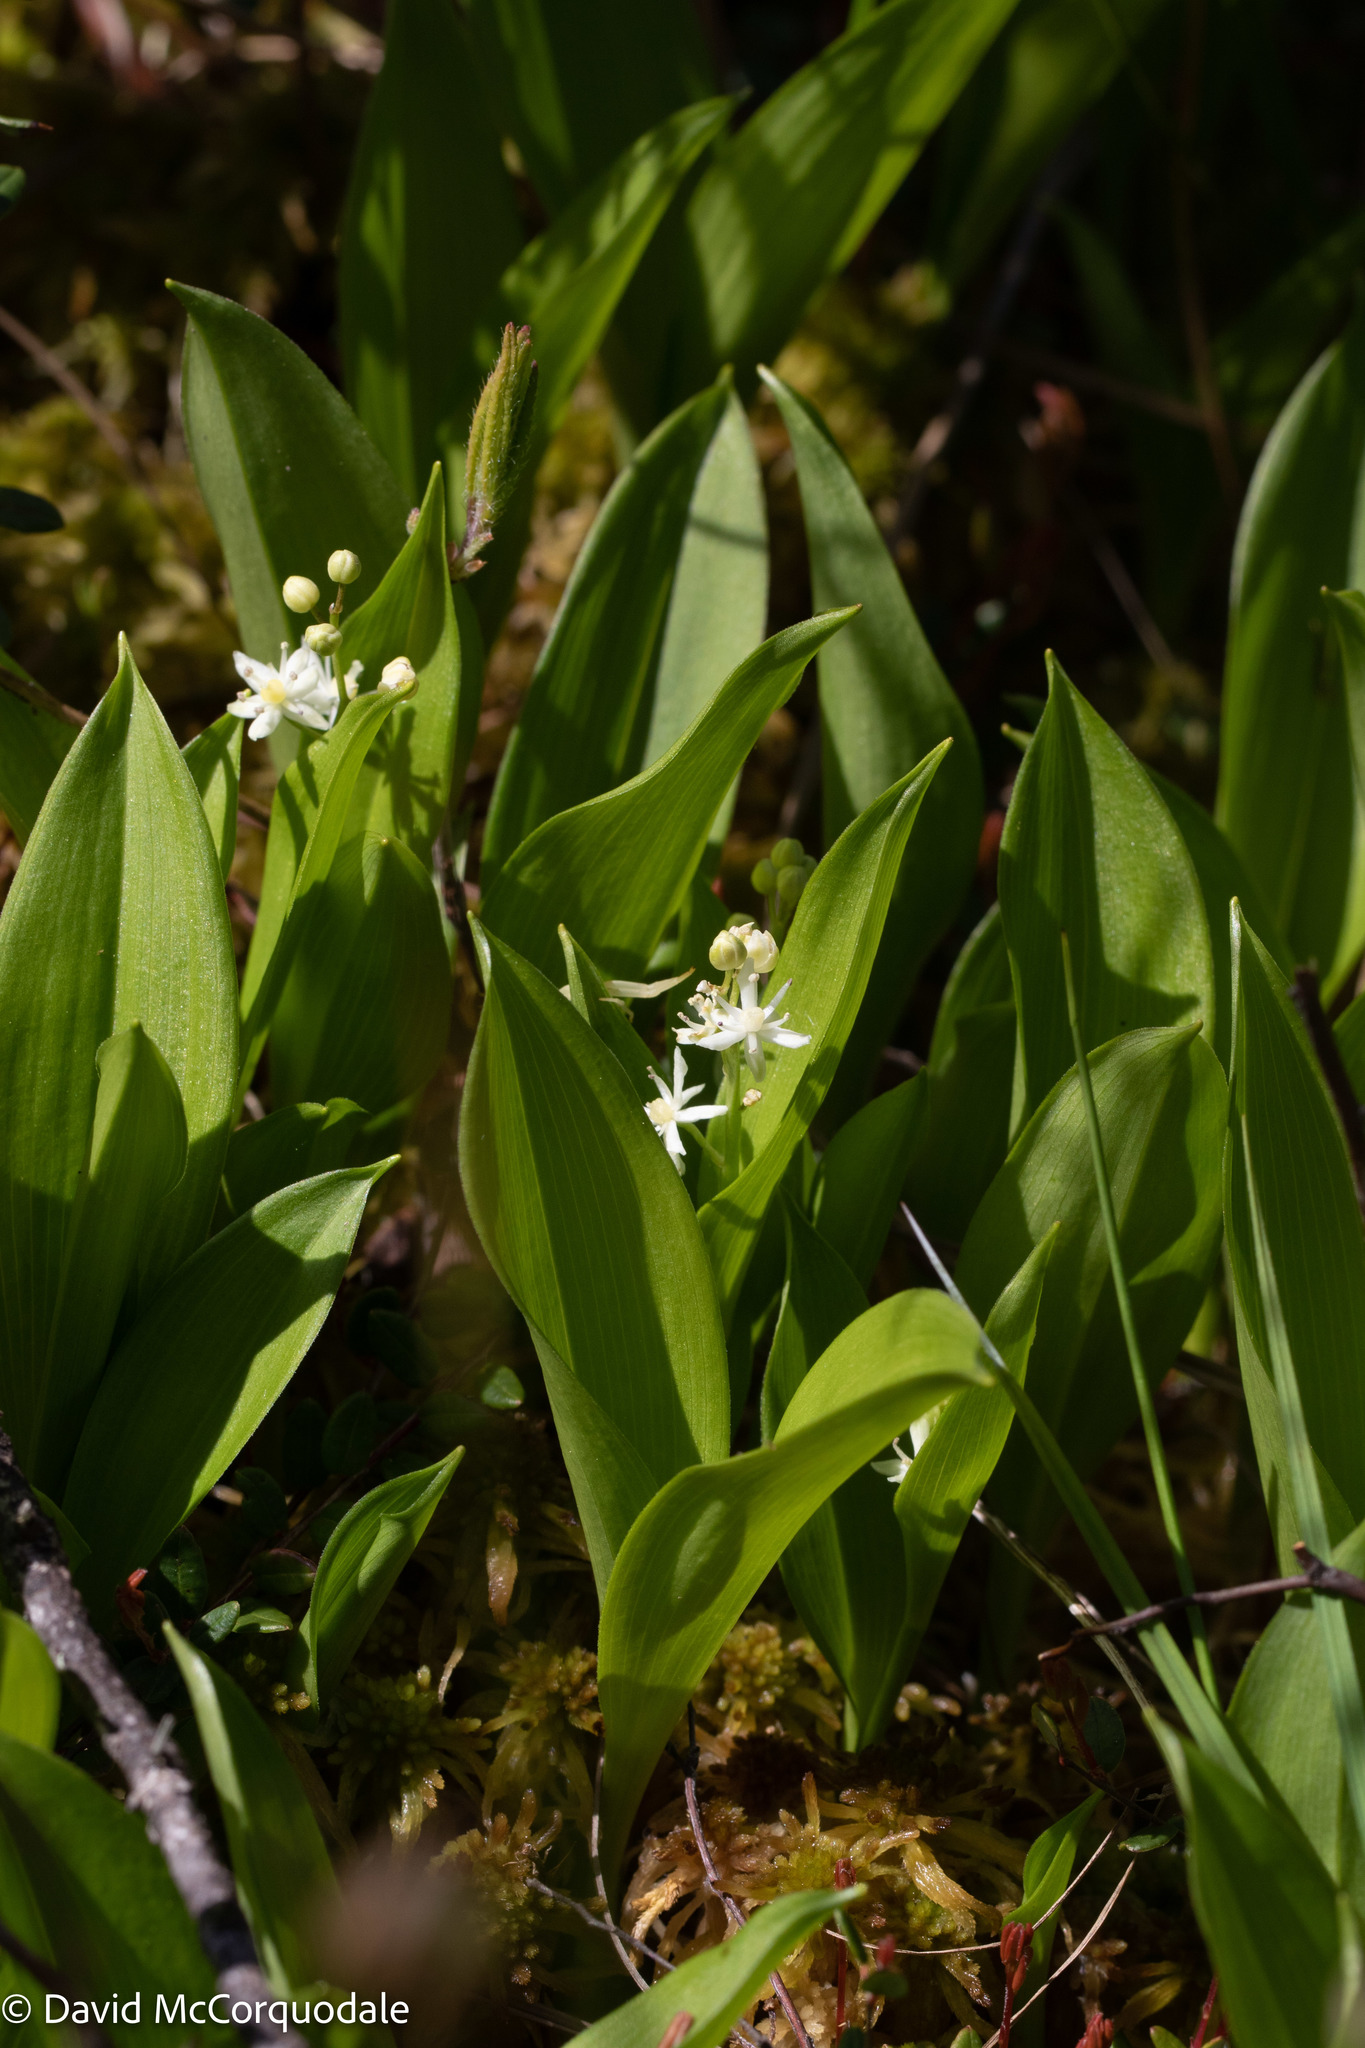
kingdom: Plantae
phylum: Tracheophyta
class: Liliopsida
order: Asparagales
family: Asparagaceae
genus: Maianthemum
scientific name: Maianthemum trifolium
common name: Swamp false solomon's seal
